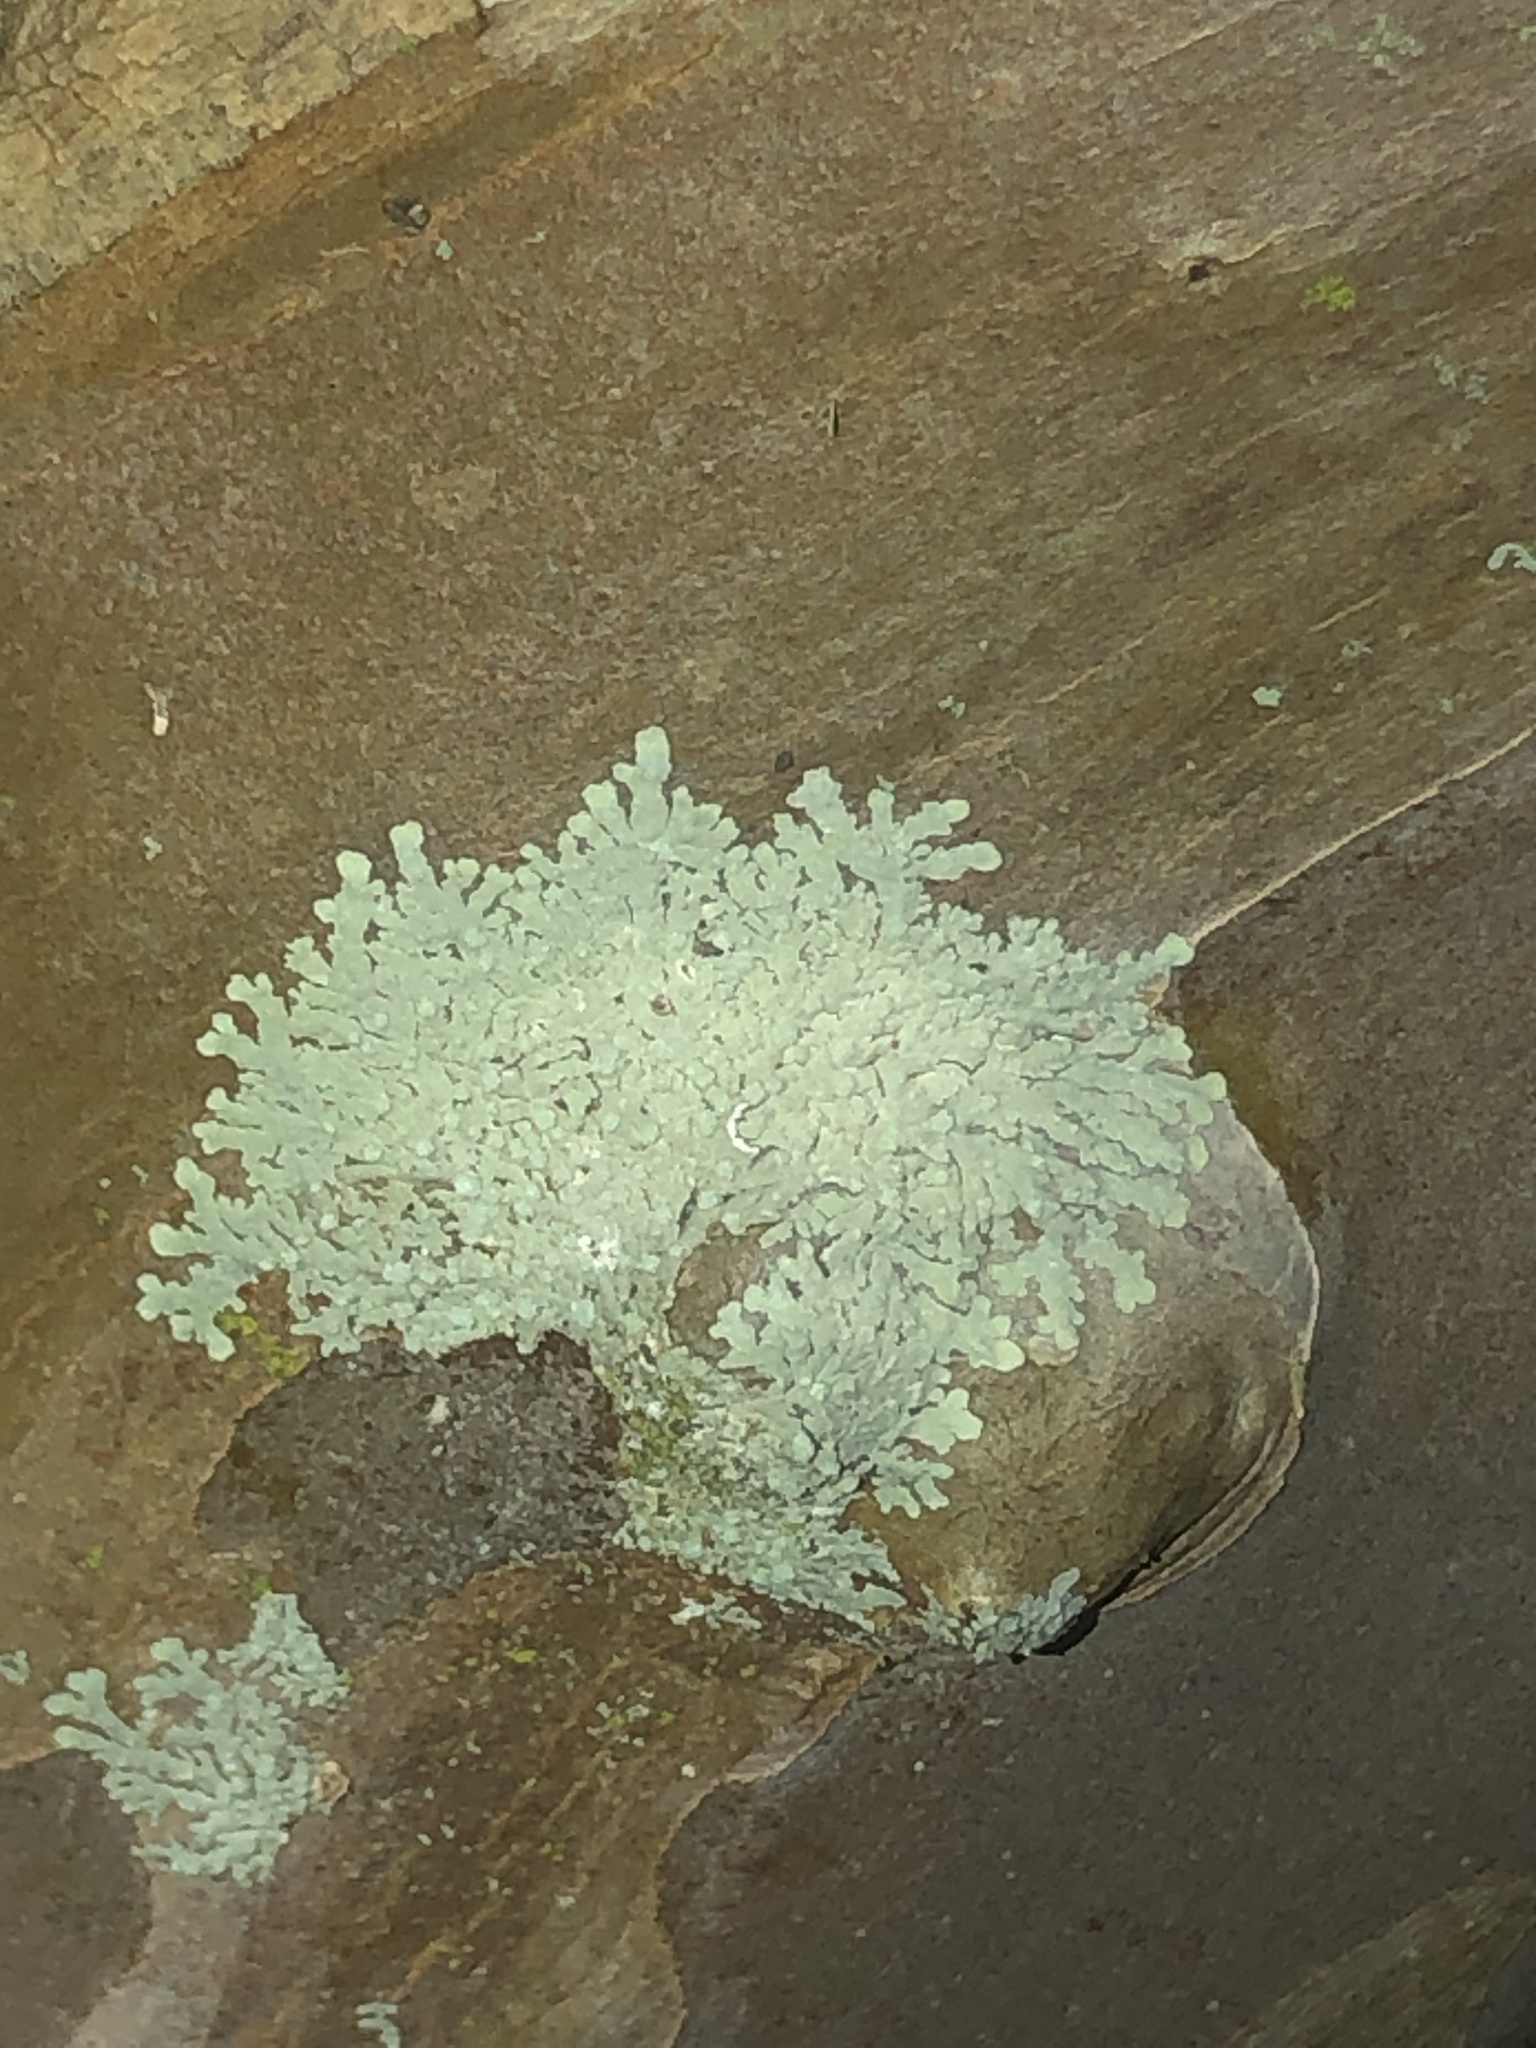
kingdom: Fungi
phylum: Ascomycota
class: Lecanoromycetes
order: Caliciales
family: Caliciaceae
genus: Pyxine
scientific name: Pyxine albovirens
